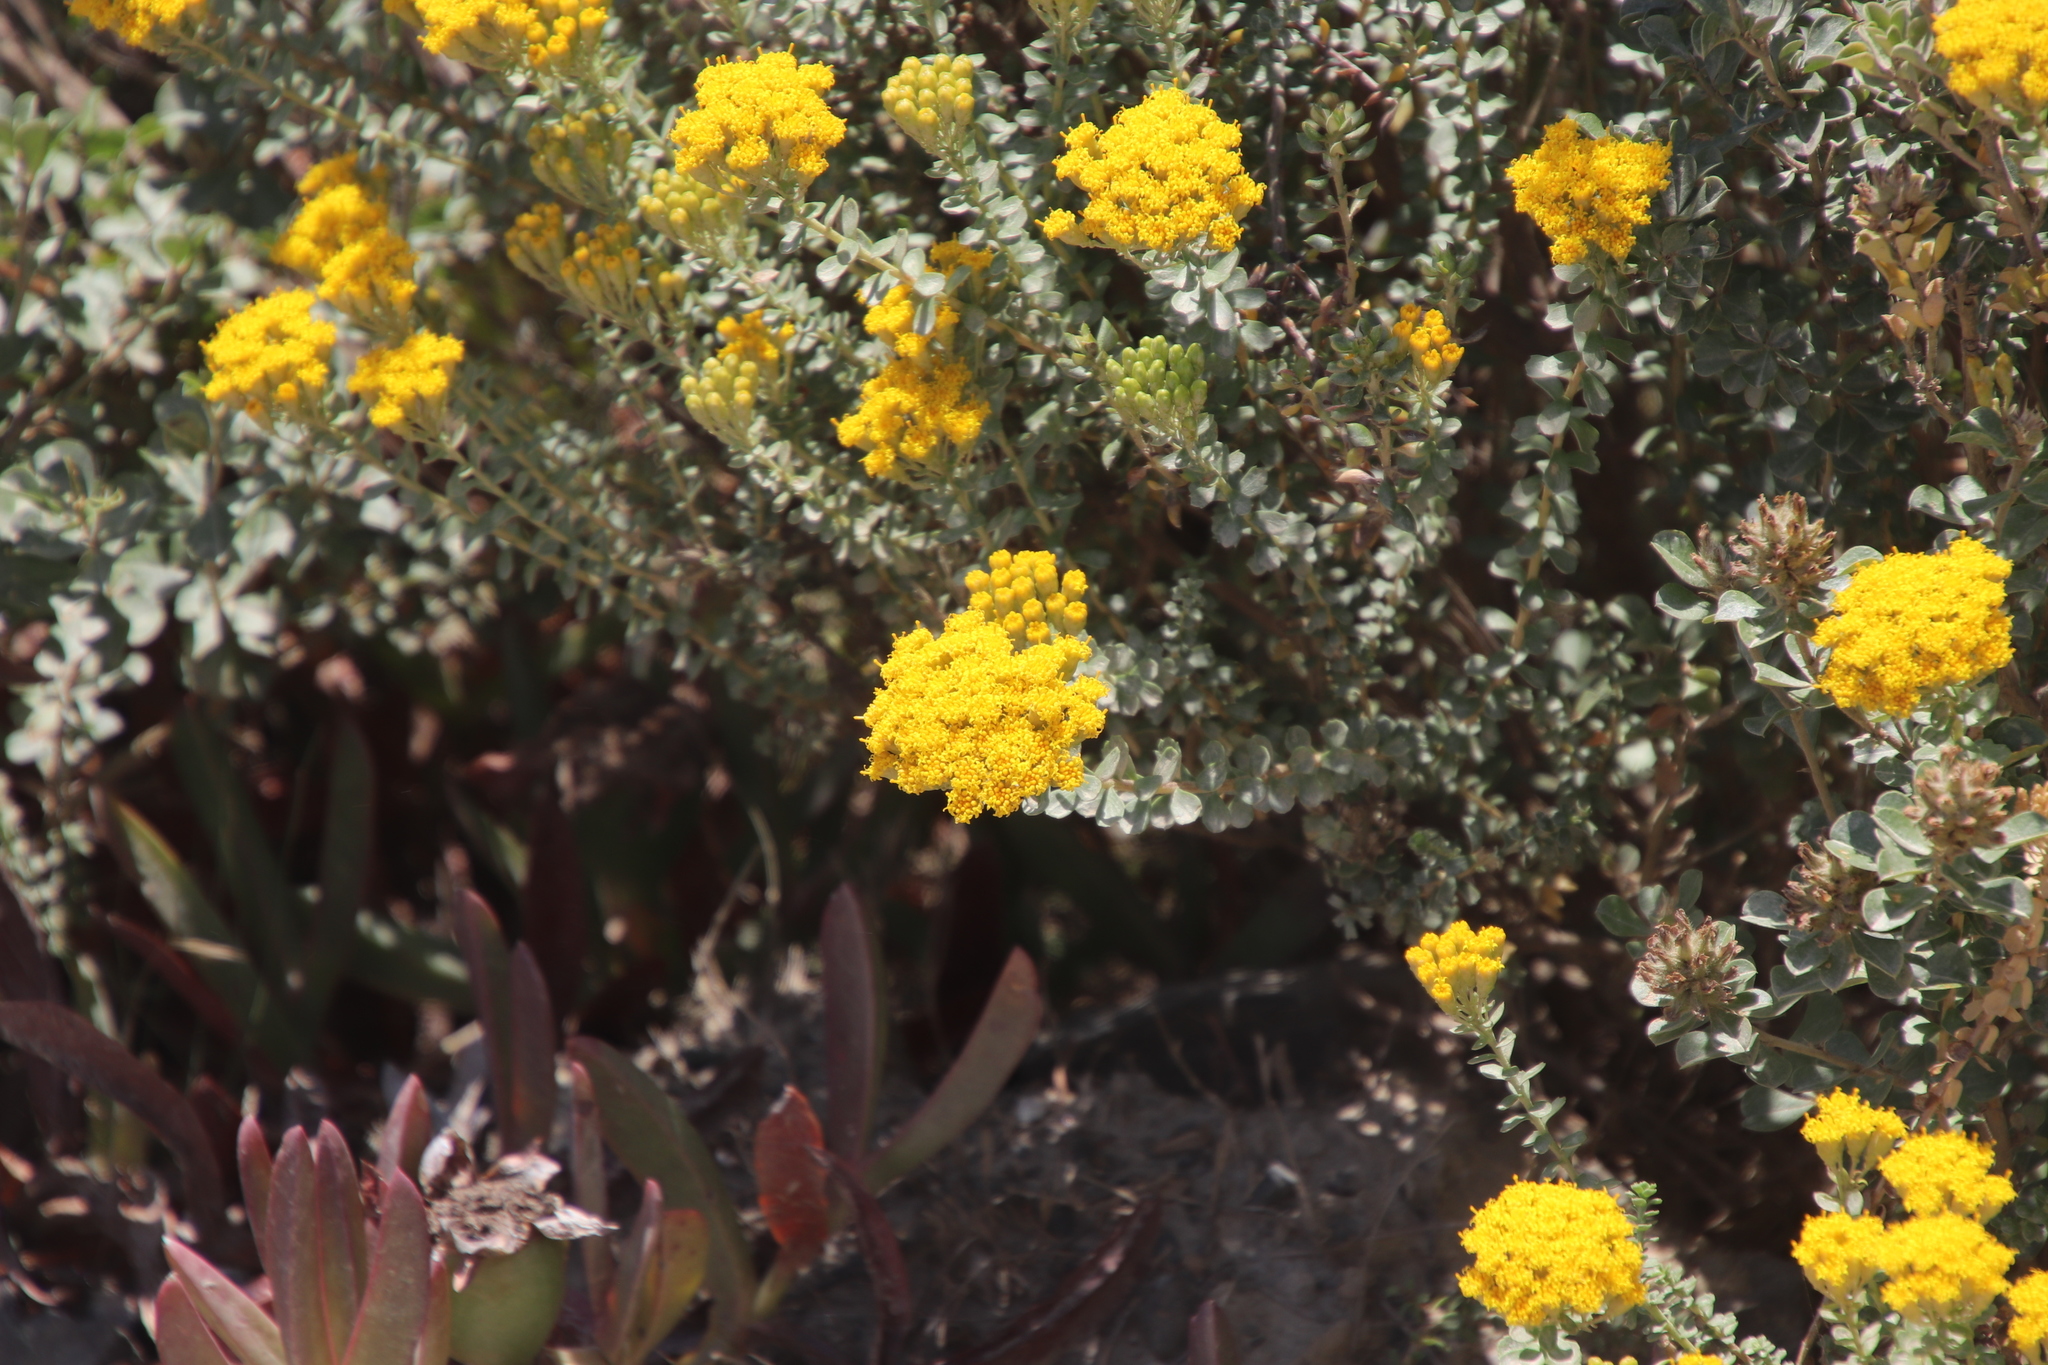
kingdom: Plantae
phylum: Tracheophyta
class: Magnoliopsida
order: Asterales
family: Asteraceae
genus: Athanasia
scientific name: Athanasia quinquedentata
